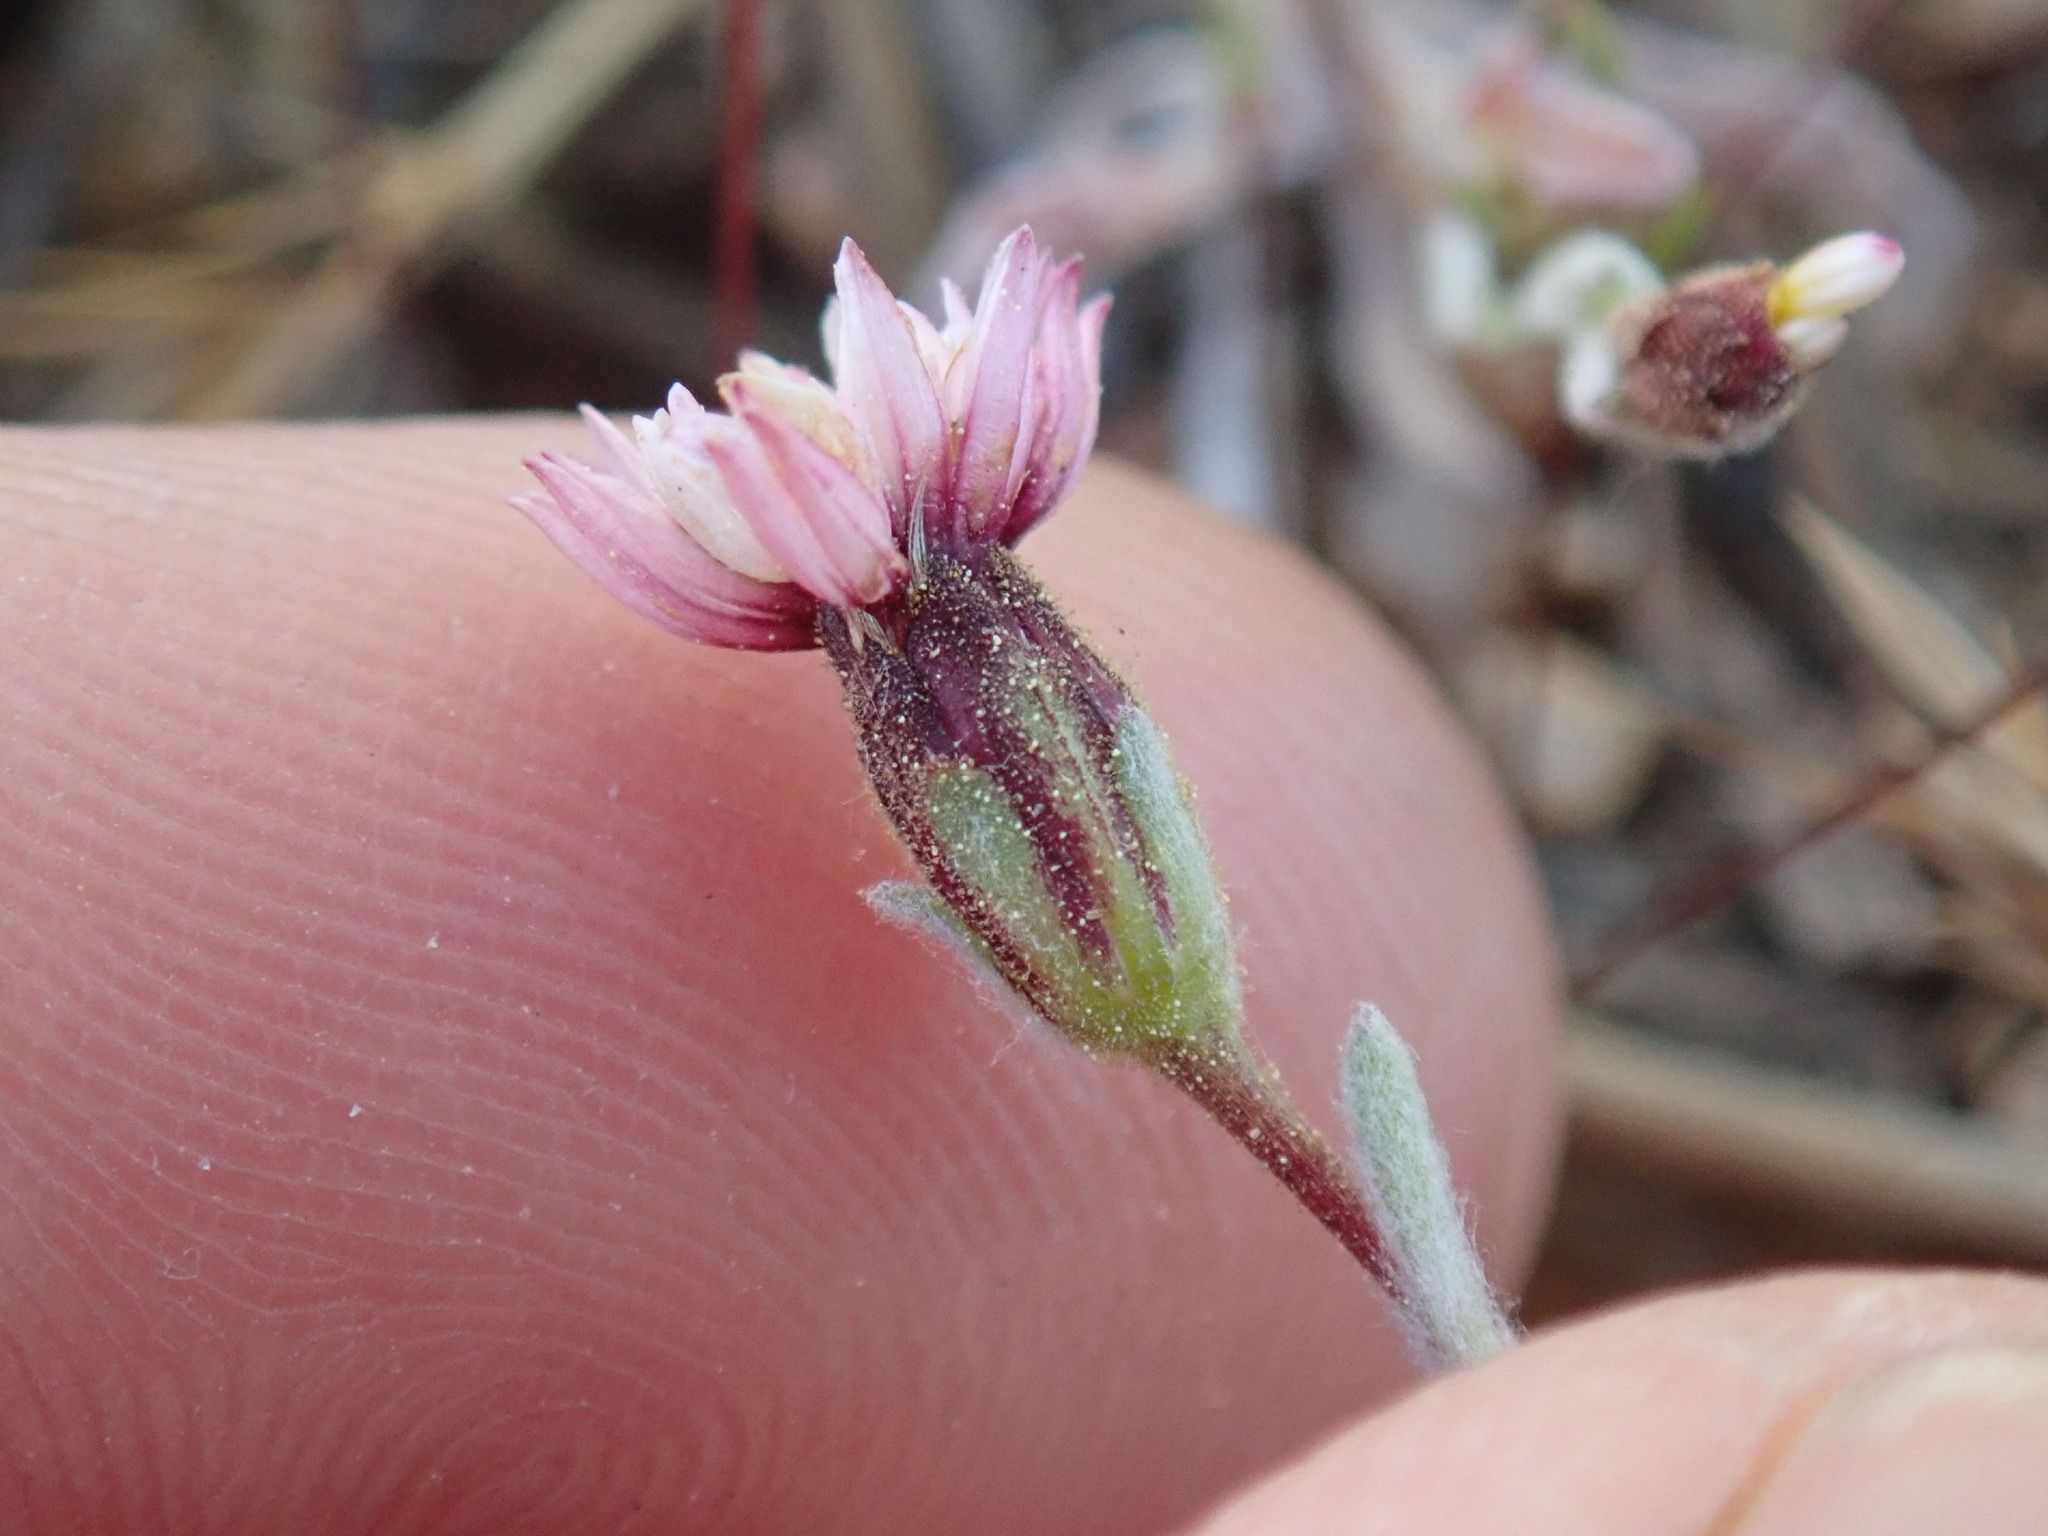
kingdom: Plantae
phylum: Tracheophyta
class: Magnoliopsida
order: Asterales
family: Asteraceae
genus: Lessingia
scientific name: Lessingia tenuis
